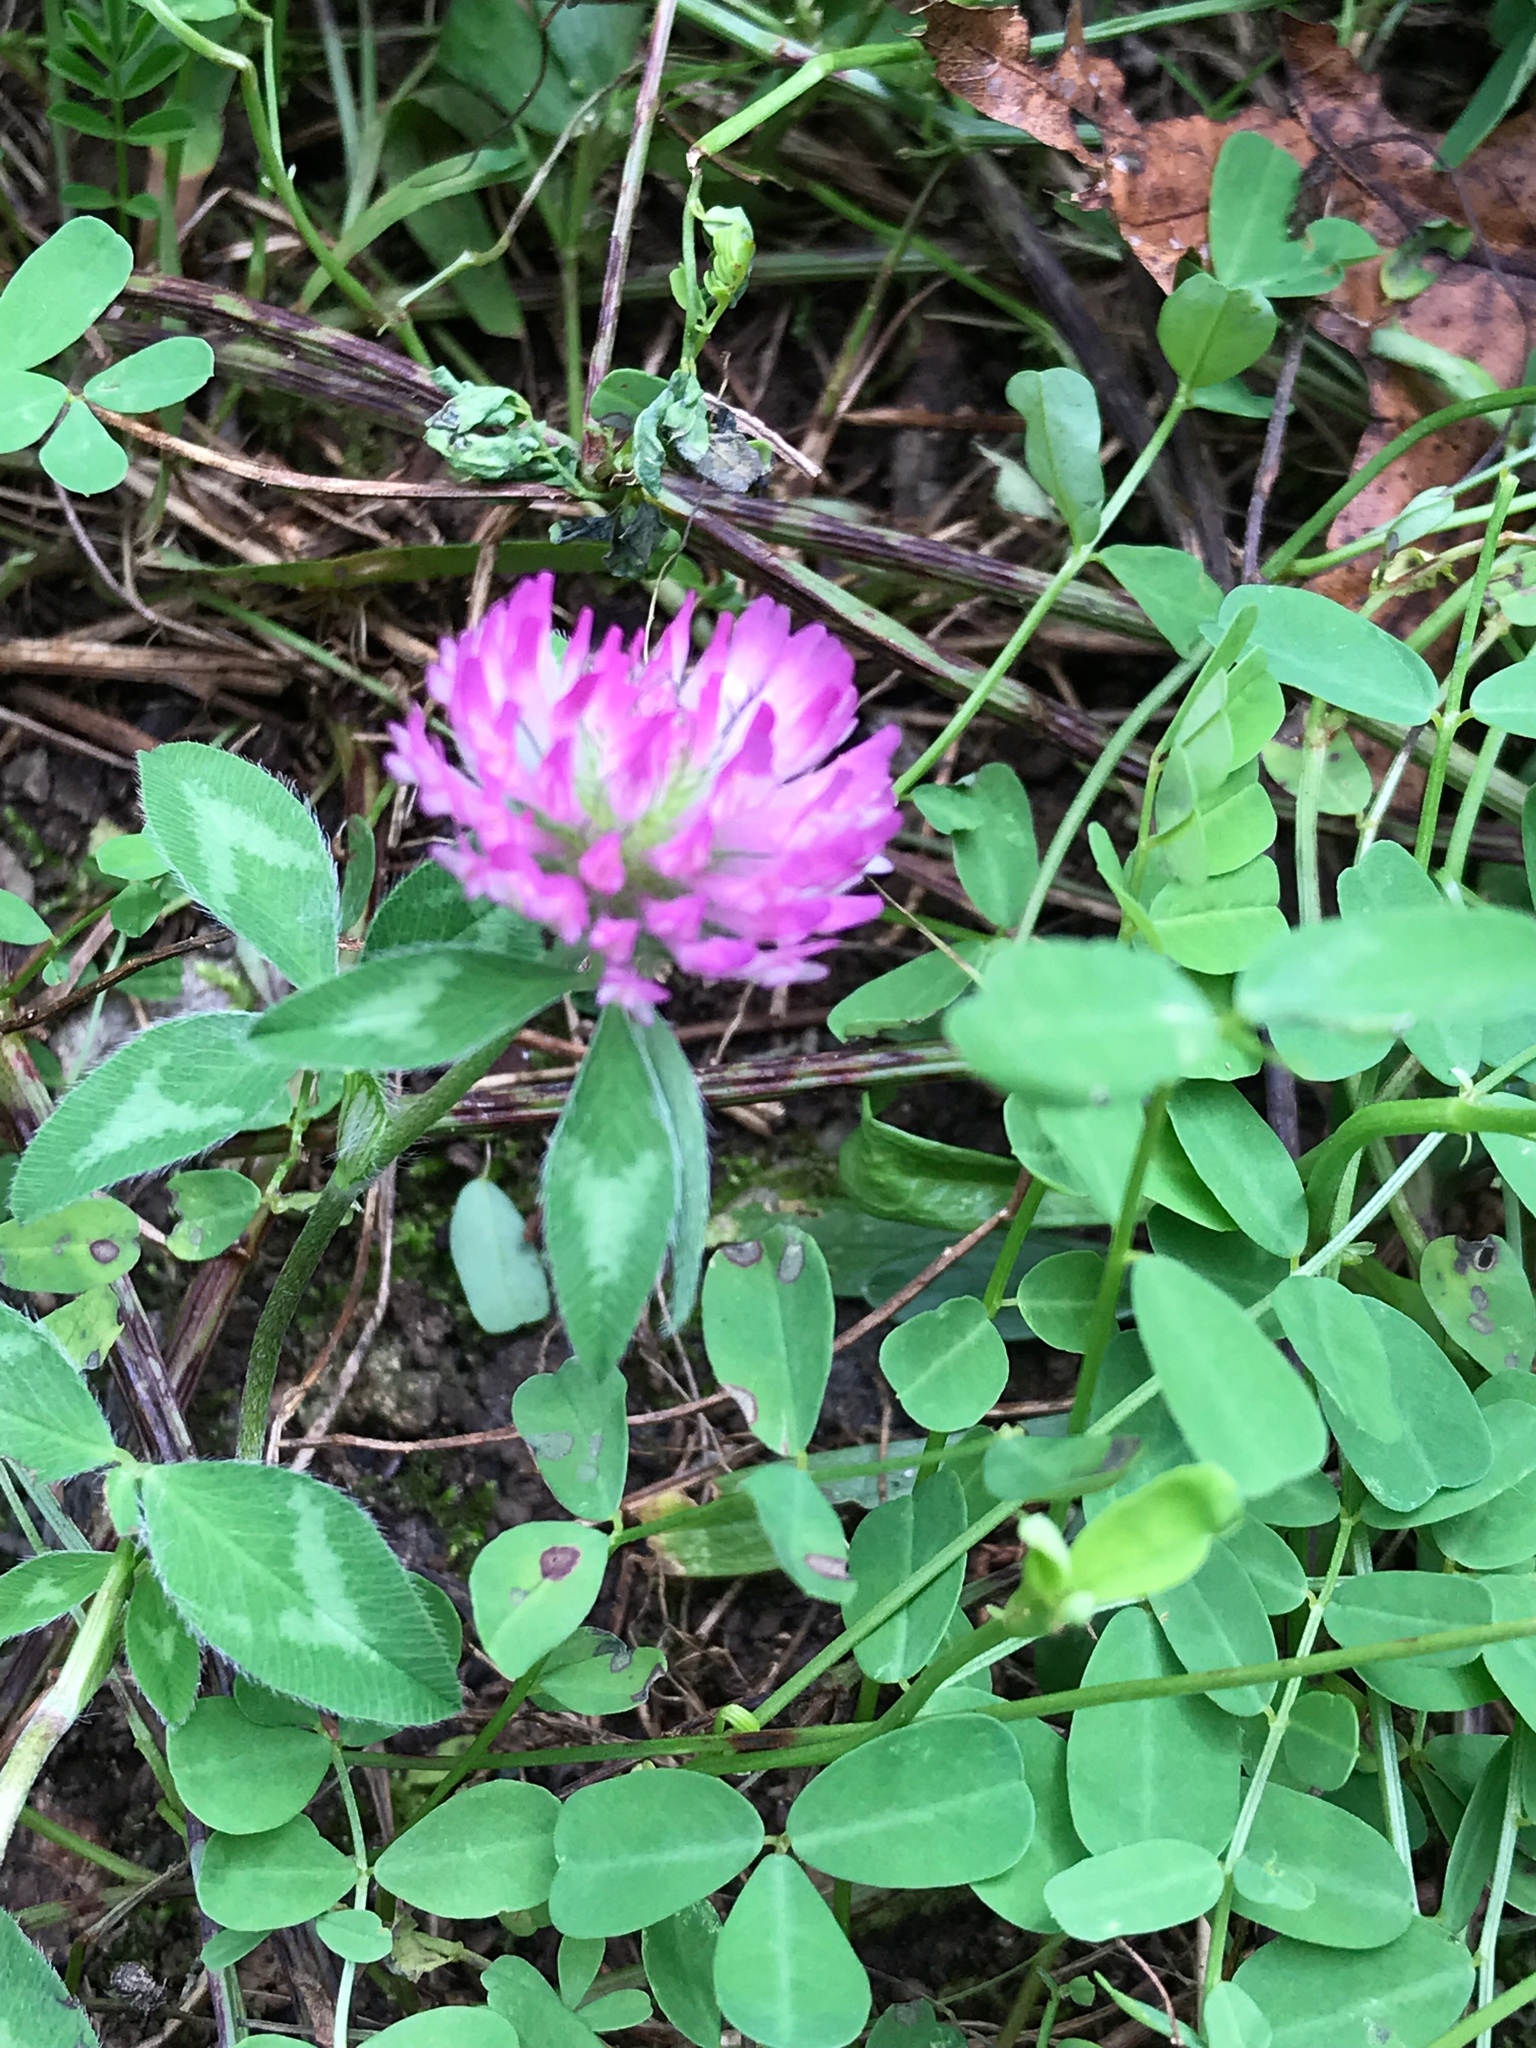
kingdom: Plantae
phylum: Tracheophyta
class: Magnoliopsida
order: Fabales
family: Fabaceae
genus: Trifolium
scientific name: Trifolium pratense
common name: Red clover
